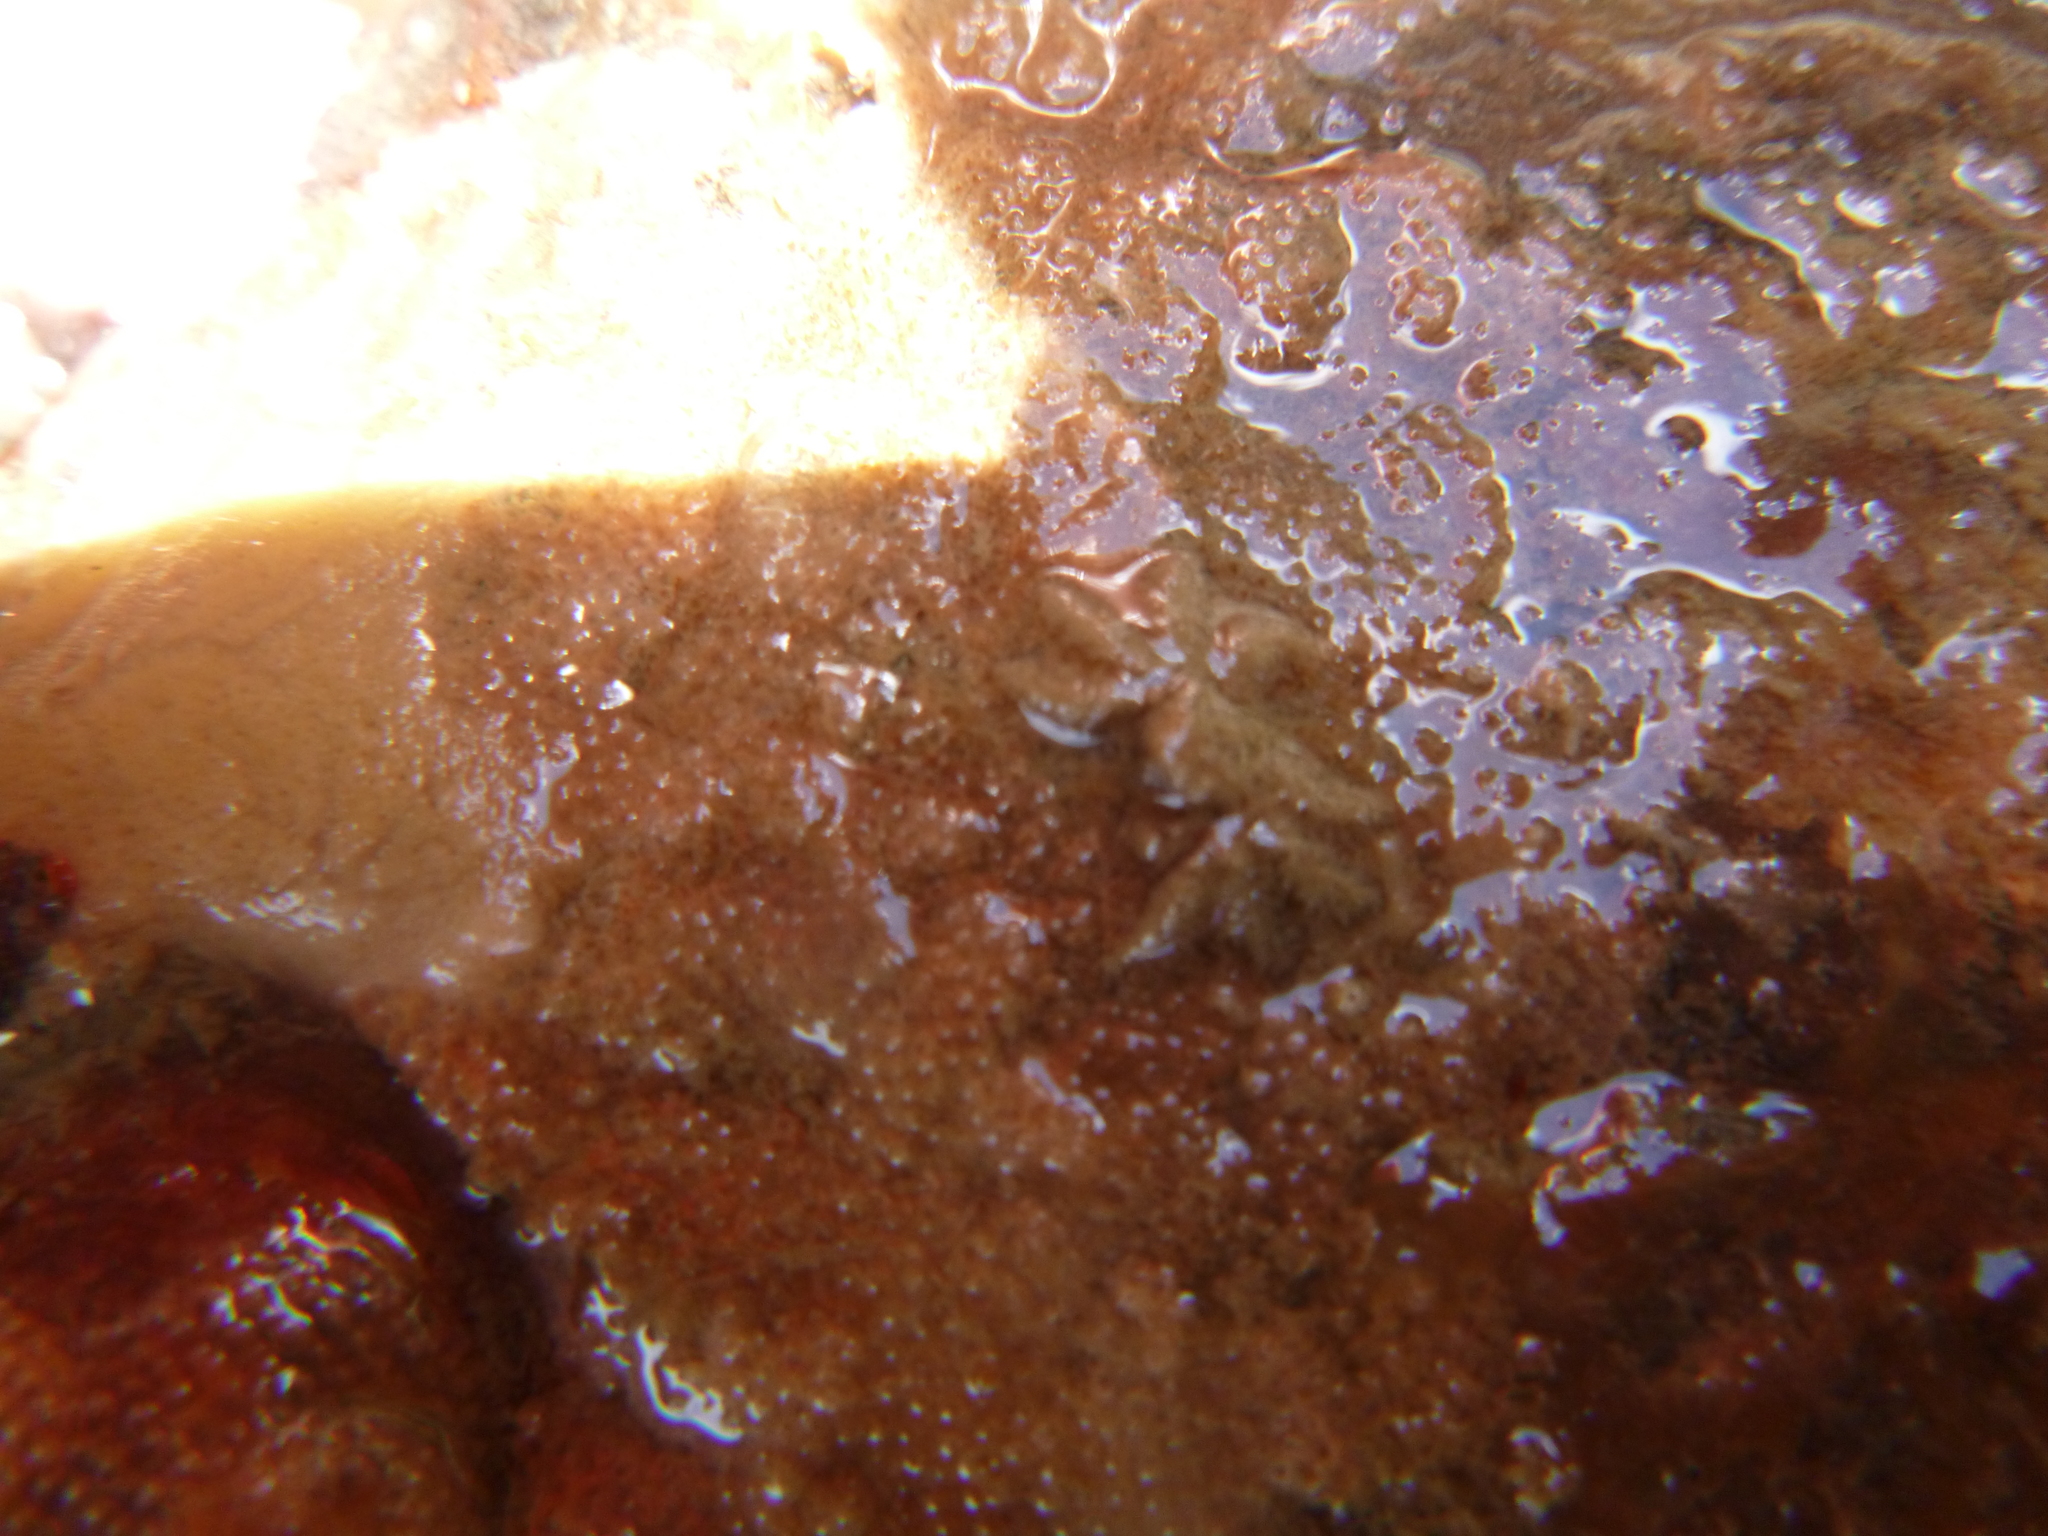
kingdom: Animalia
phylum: Arthropoda
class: Malacostraca
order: Decapoda
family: Hymenosomatidae
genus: Neohymenicus
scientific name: Neohymenicus pubescens
